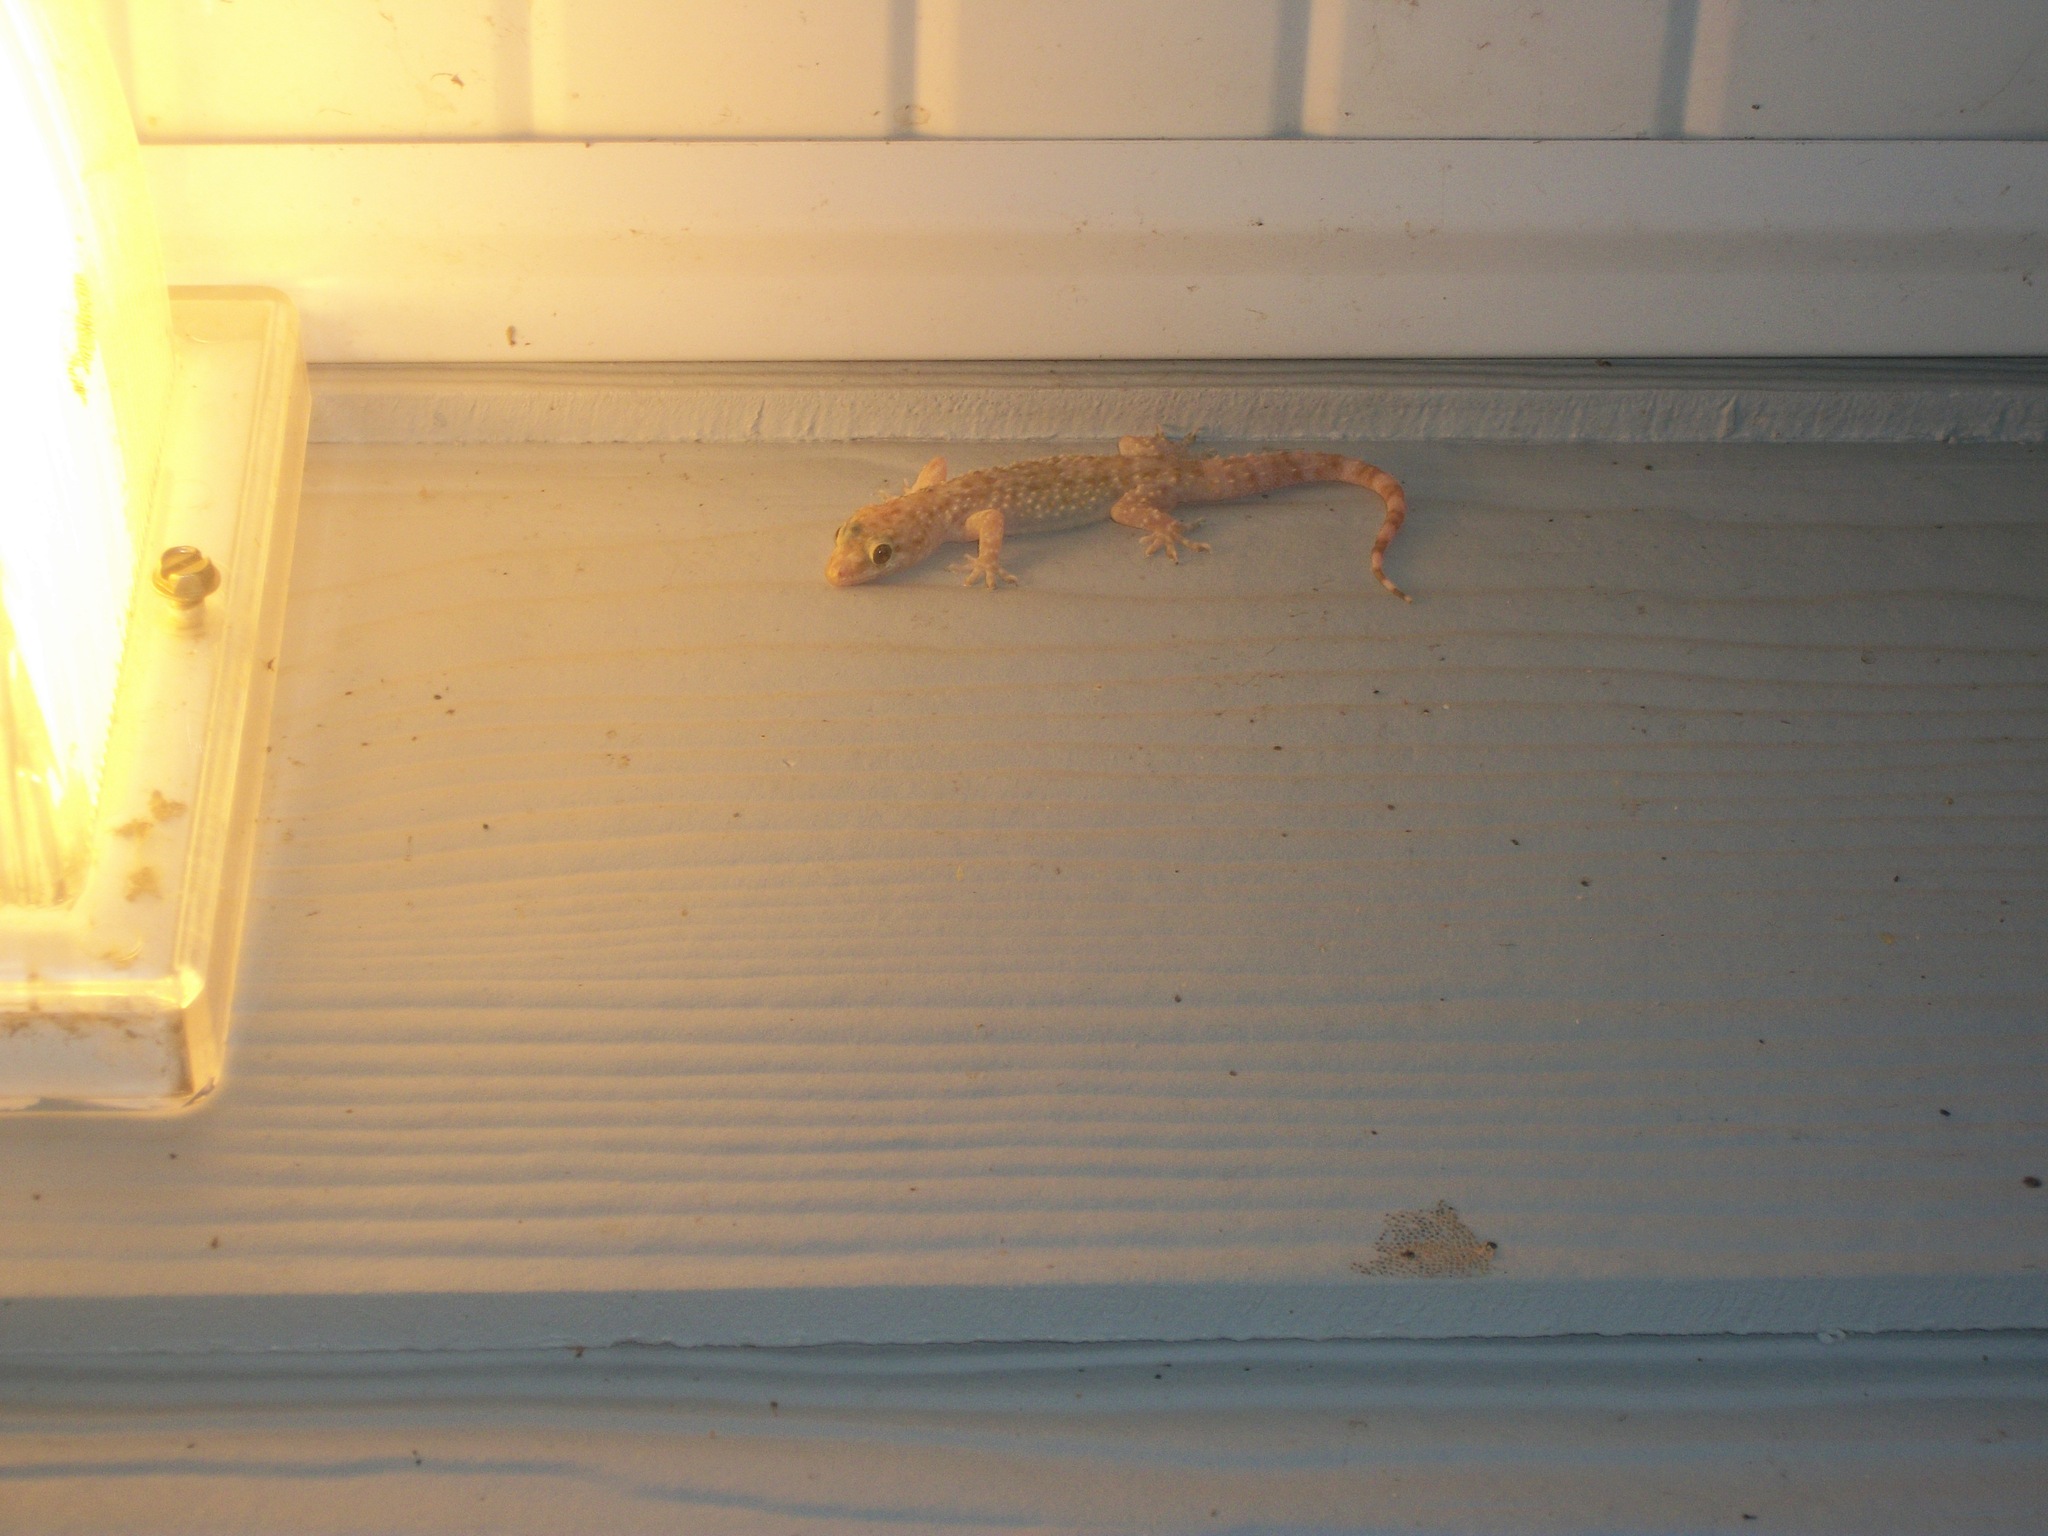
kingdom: Animalia
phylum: Chordata
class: Squamata
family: Gekkonidae
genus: Hemidactylus
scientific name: Hemidactylus turcicus
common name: Turkish gecko
